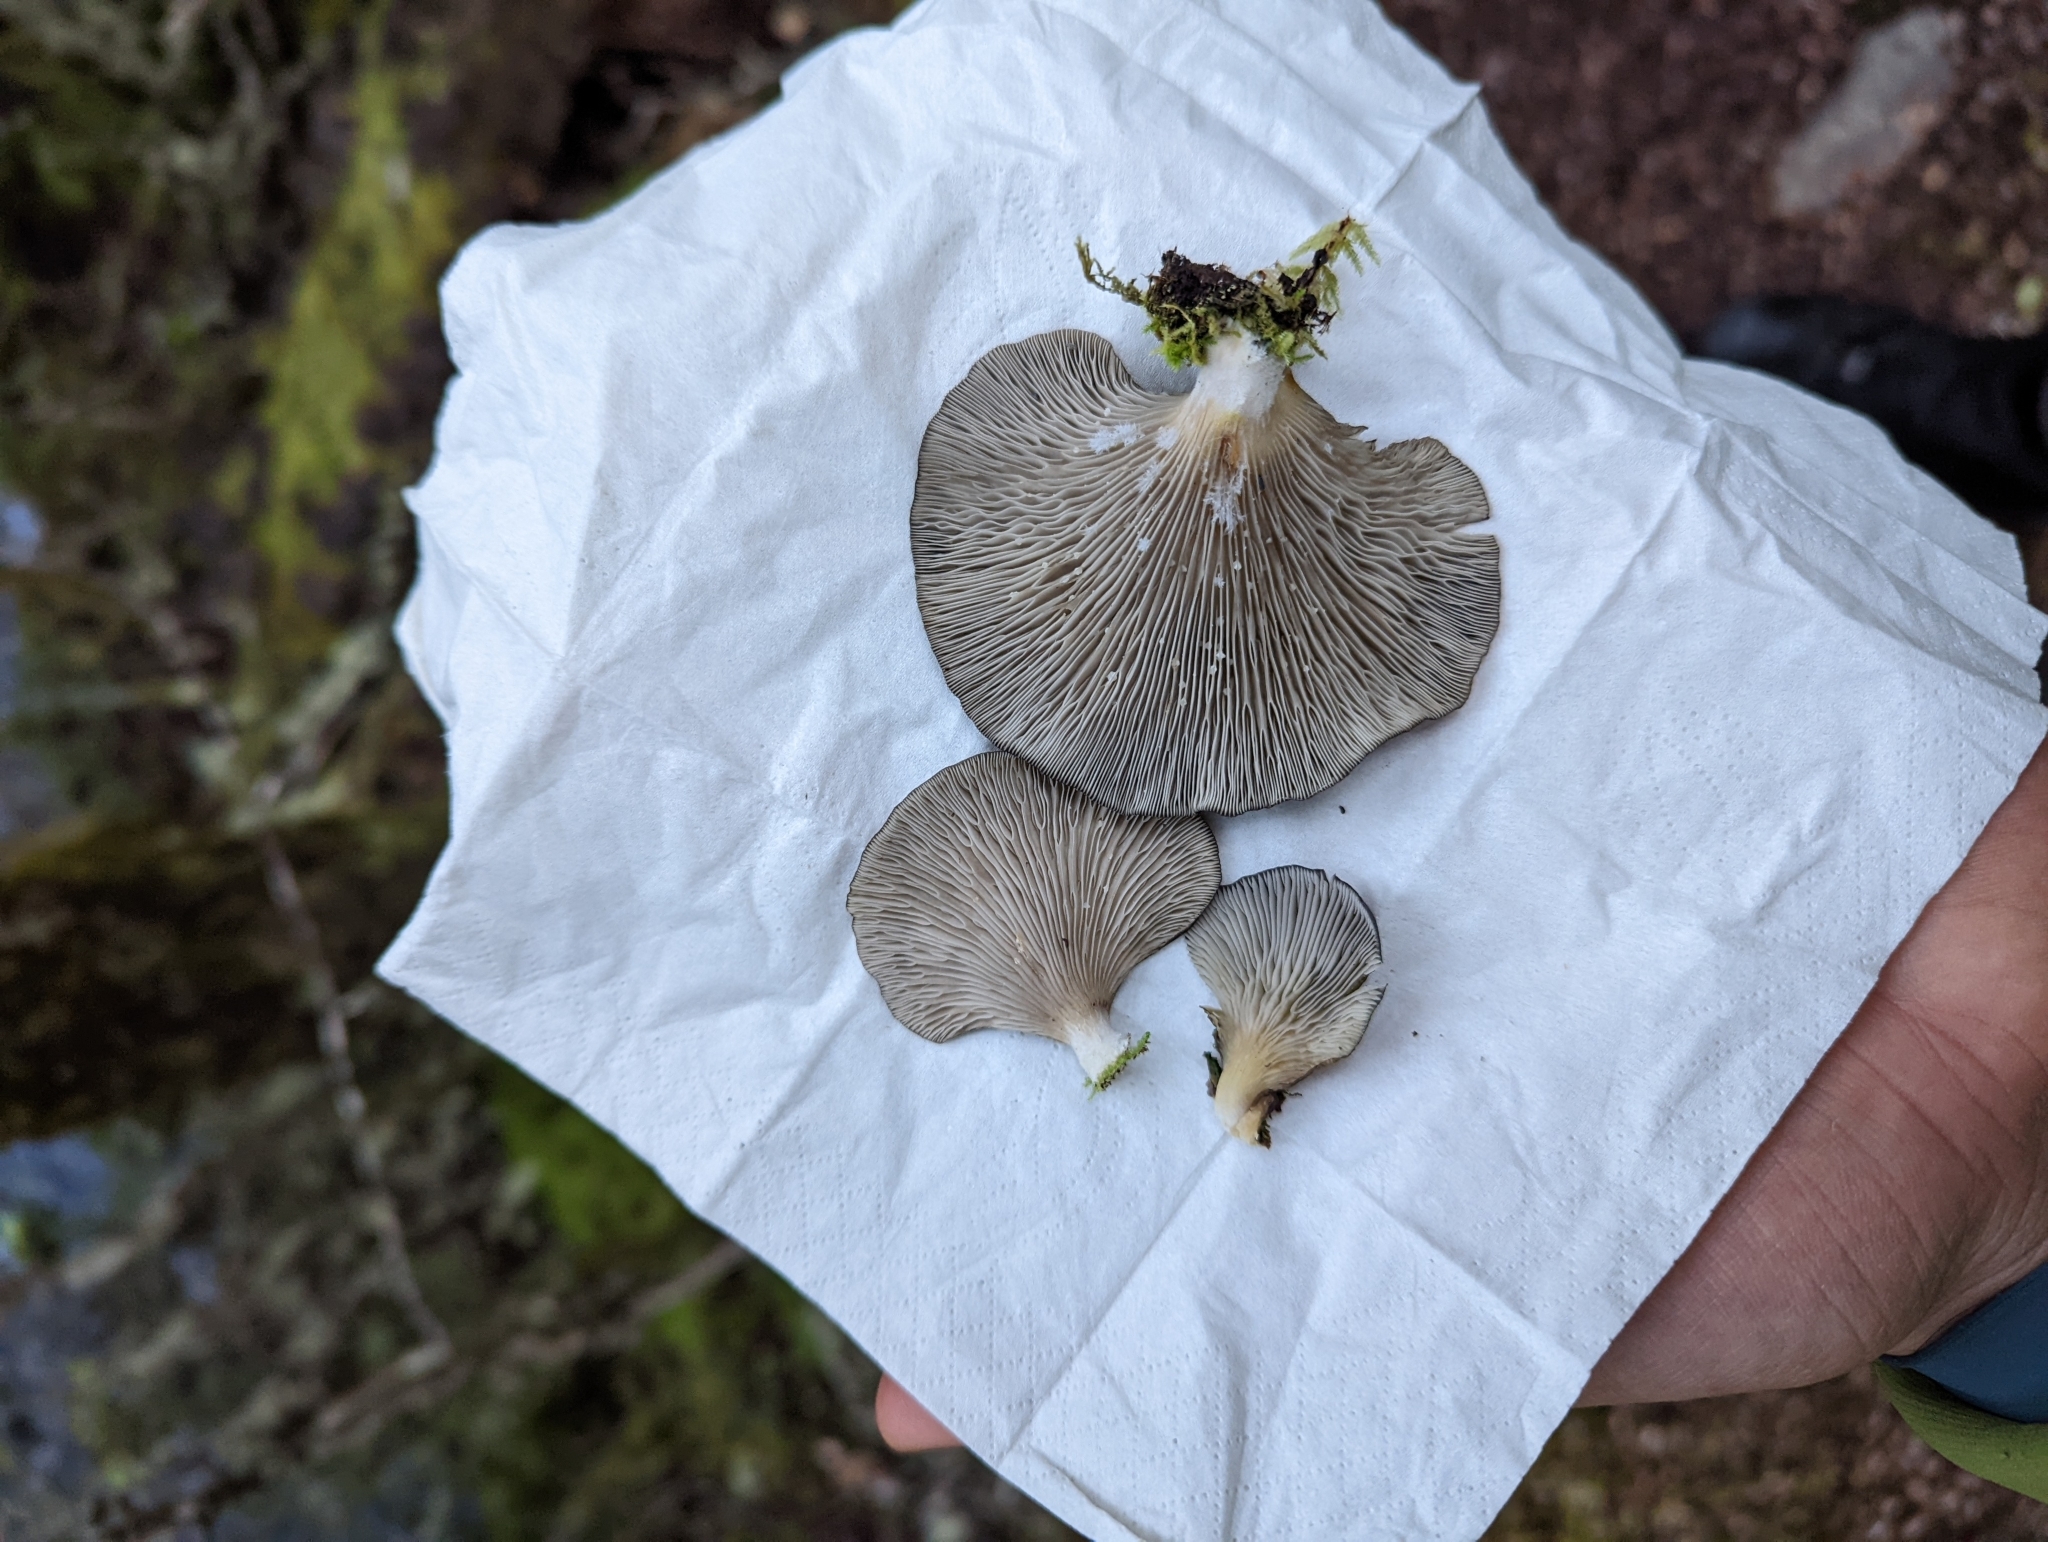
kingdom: Fungi
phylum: Basidiomycota
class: Agaricomycetes
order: Agaricales
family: Pleurotaceae
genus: Pleurotus
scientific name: Pleurotus purpureo-olivaceus
